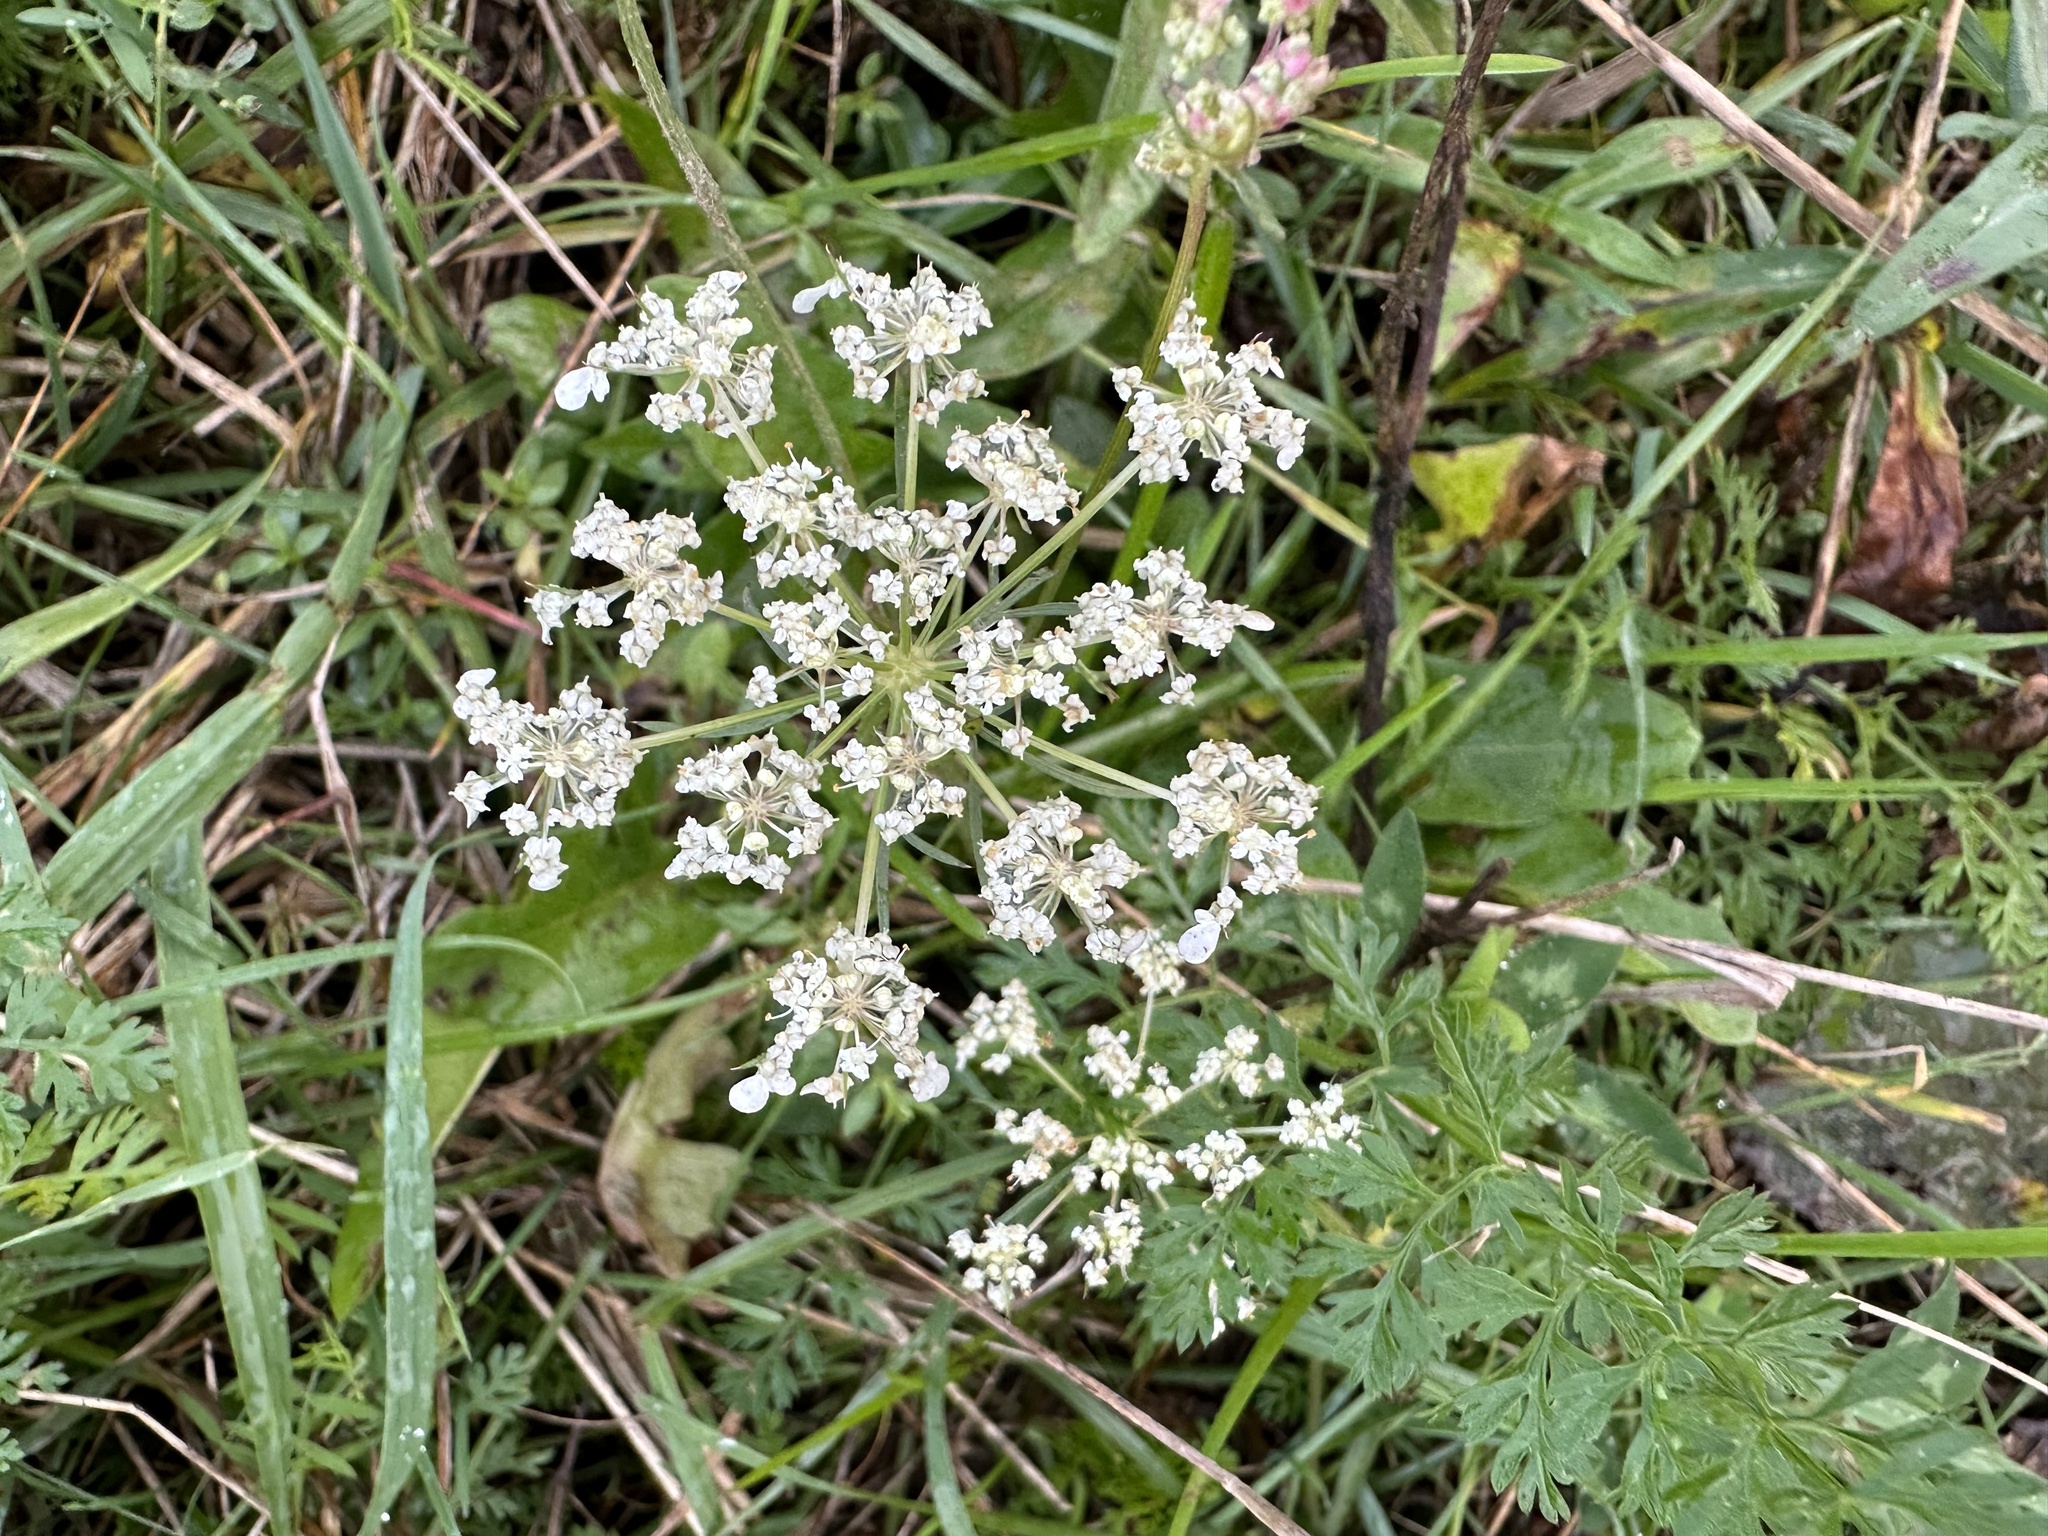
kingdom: Plantae
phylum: Tracheophyta
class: Magnoliopsida
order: Apiales
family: Apiaceae
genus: Daucus
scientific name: Daucus carota
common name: Wild carrot
